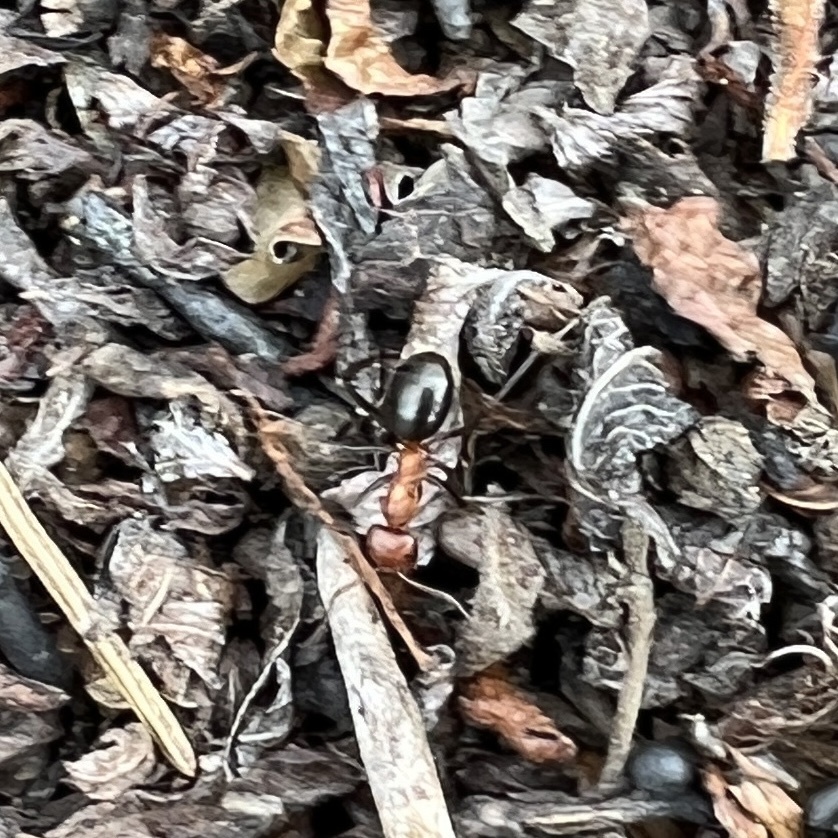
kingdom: Animalia
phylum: Arthropoda
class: Insecta
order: Hymenoptera
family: Formicidae
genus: Formica
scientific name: Formica exsectoides
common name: Allegheny mound ant
